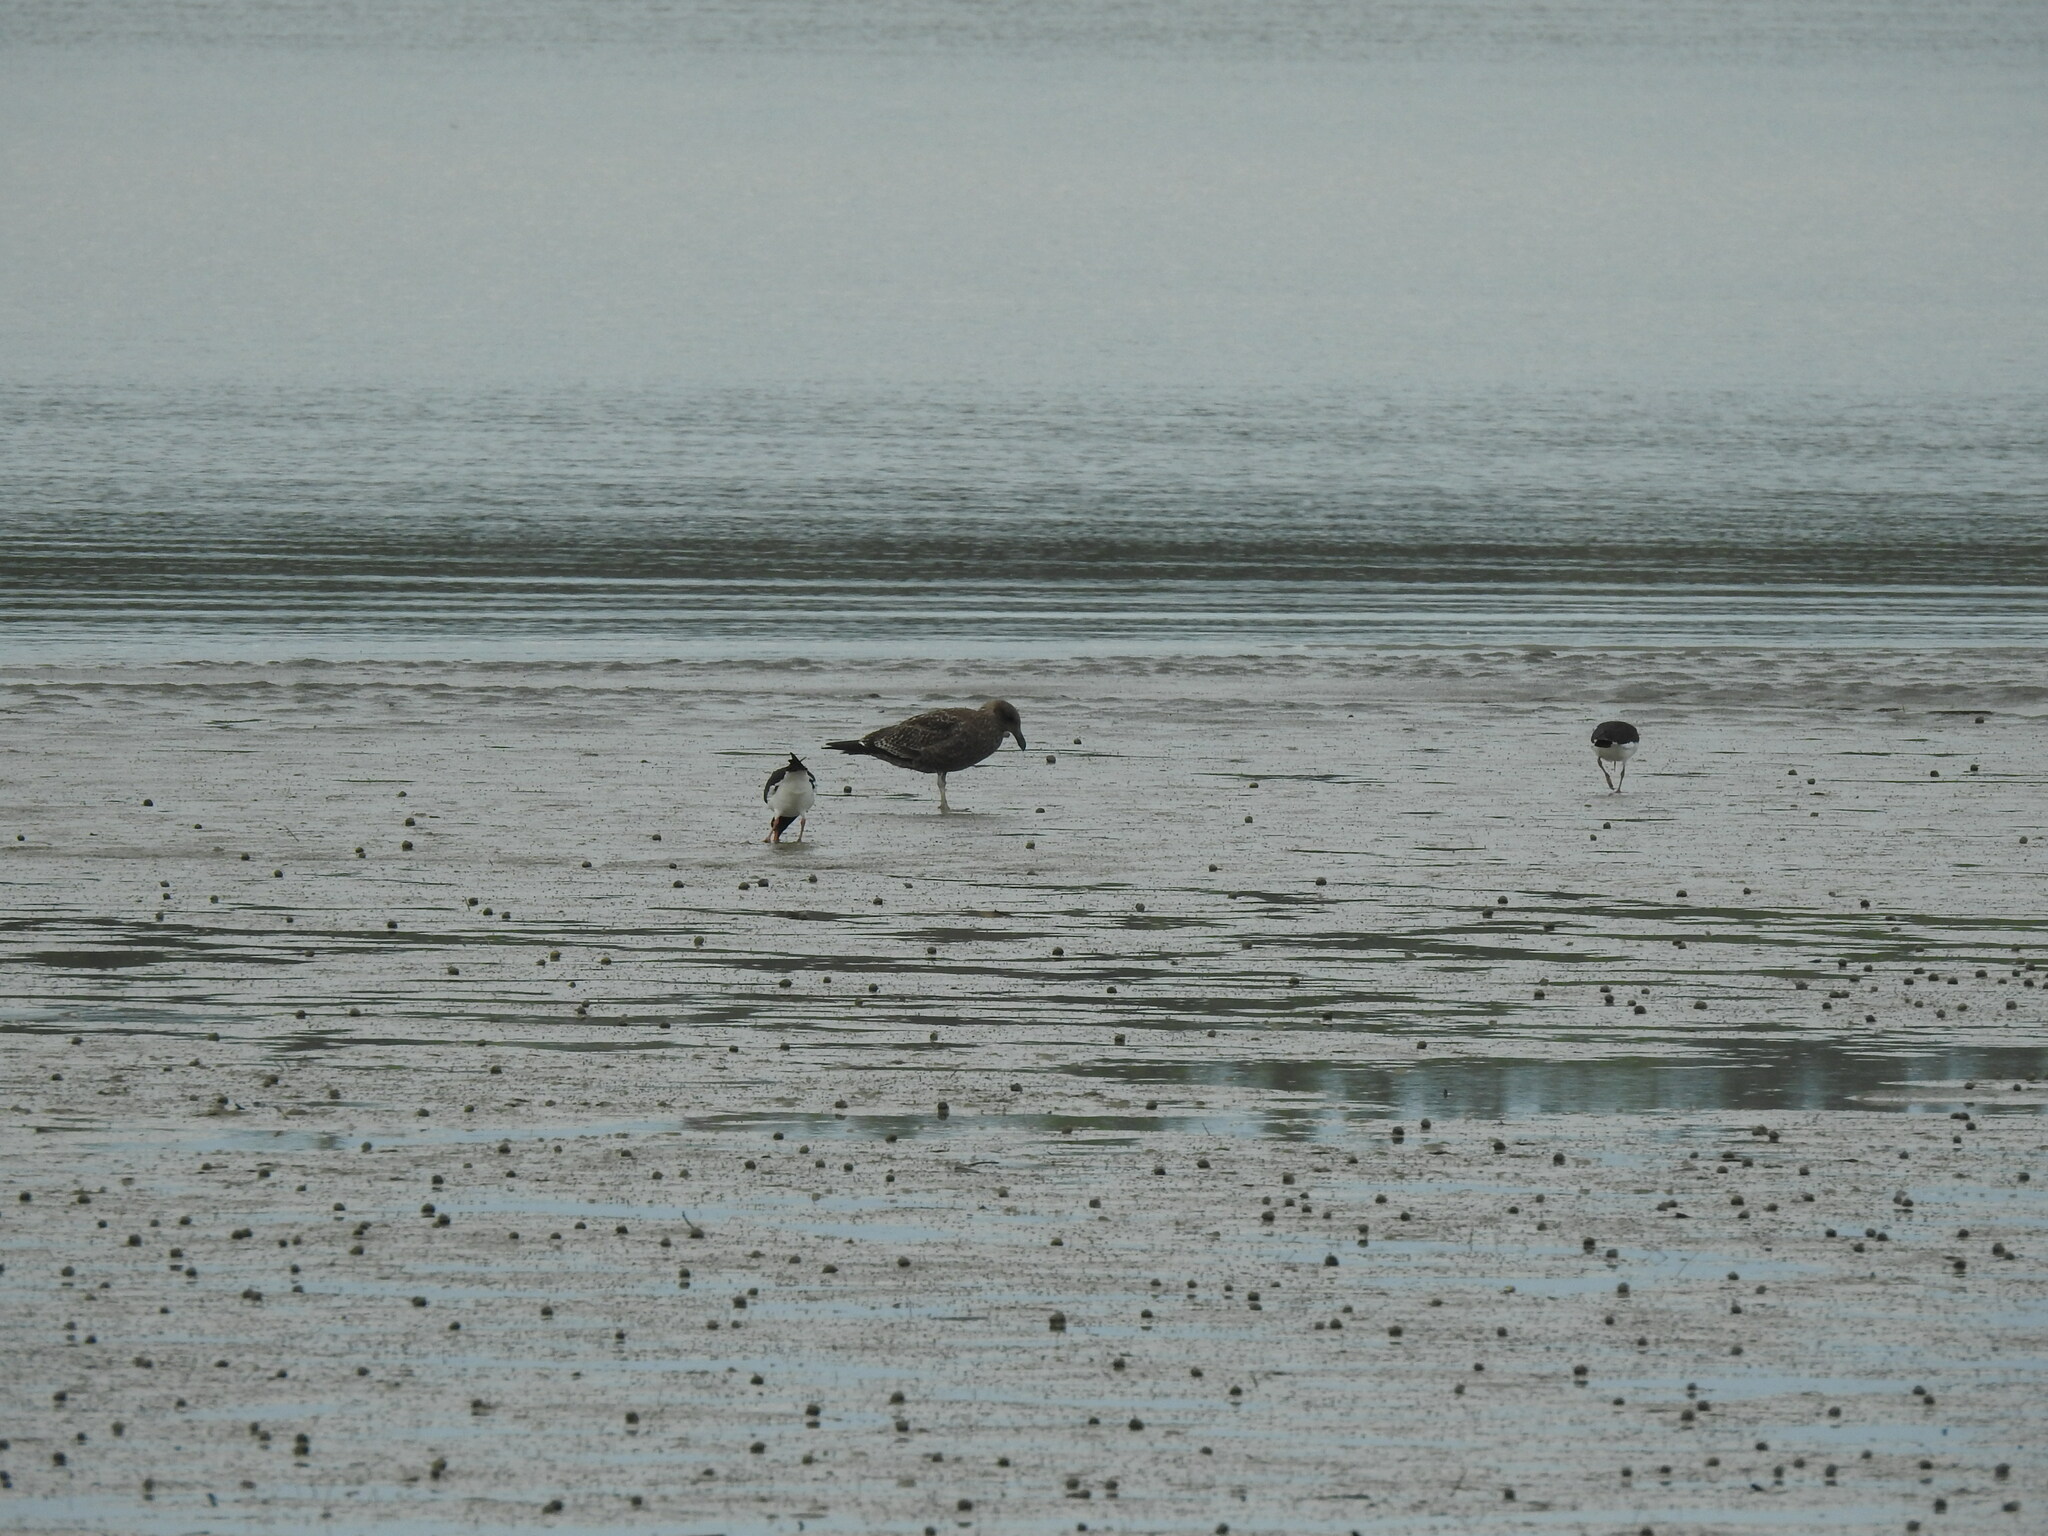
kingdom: Animalia
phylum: Chordata
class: Aves
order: Charadriiformes
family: Haematopodidae
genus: Haematopus
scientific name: Haematopus finschi
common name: South island oystercatcher
